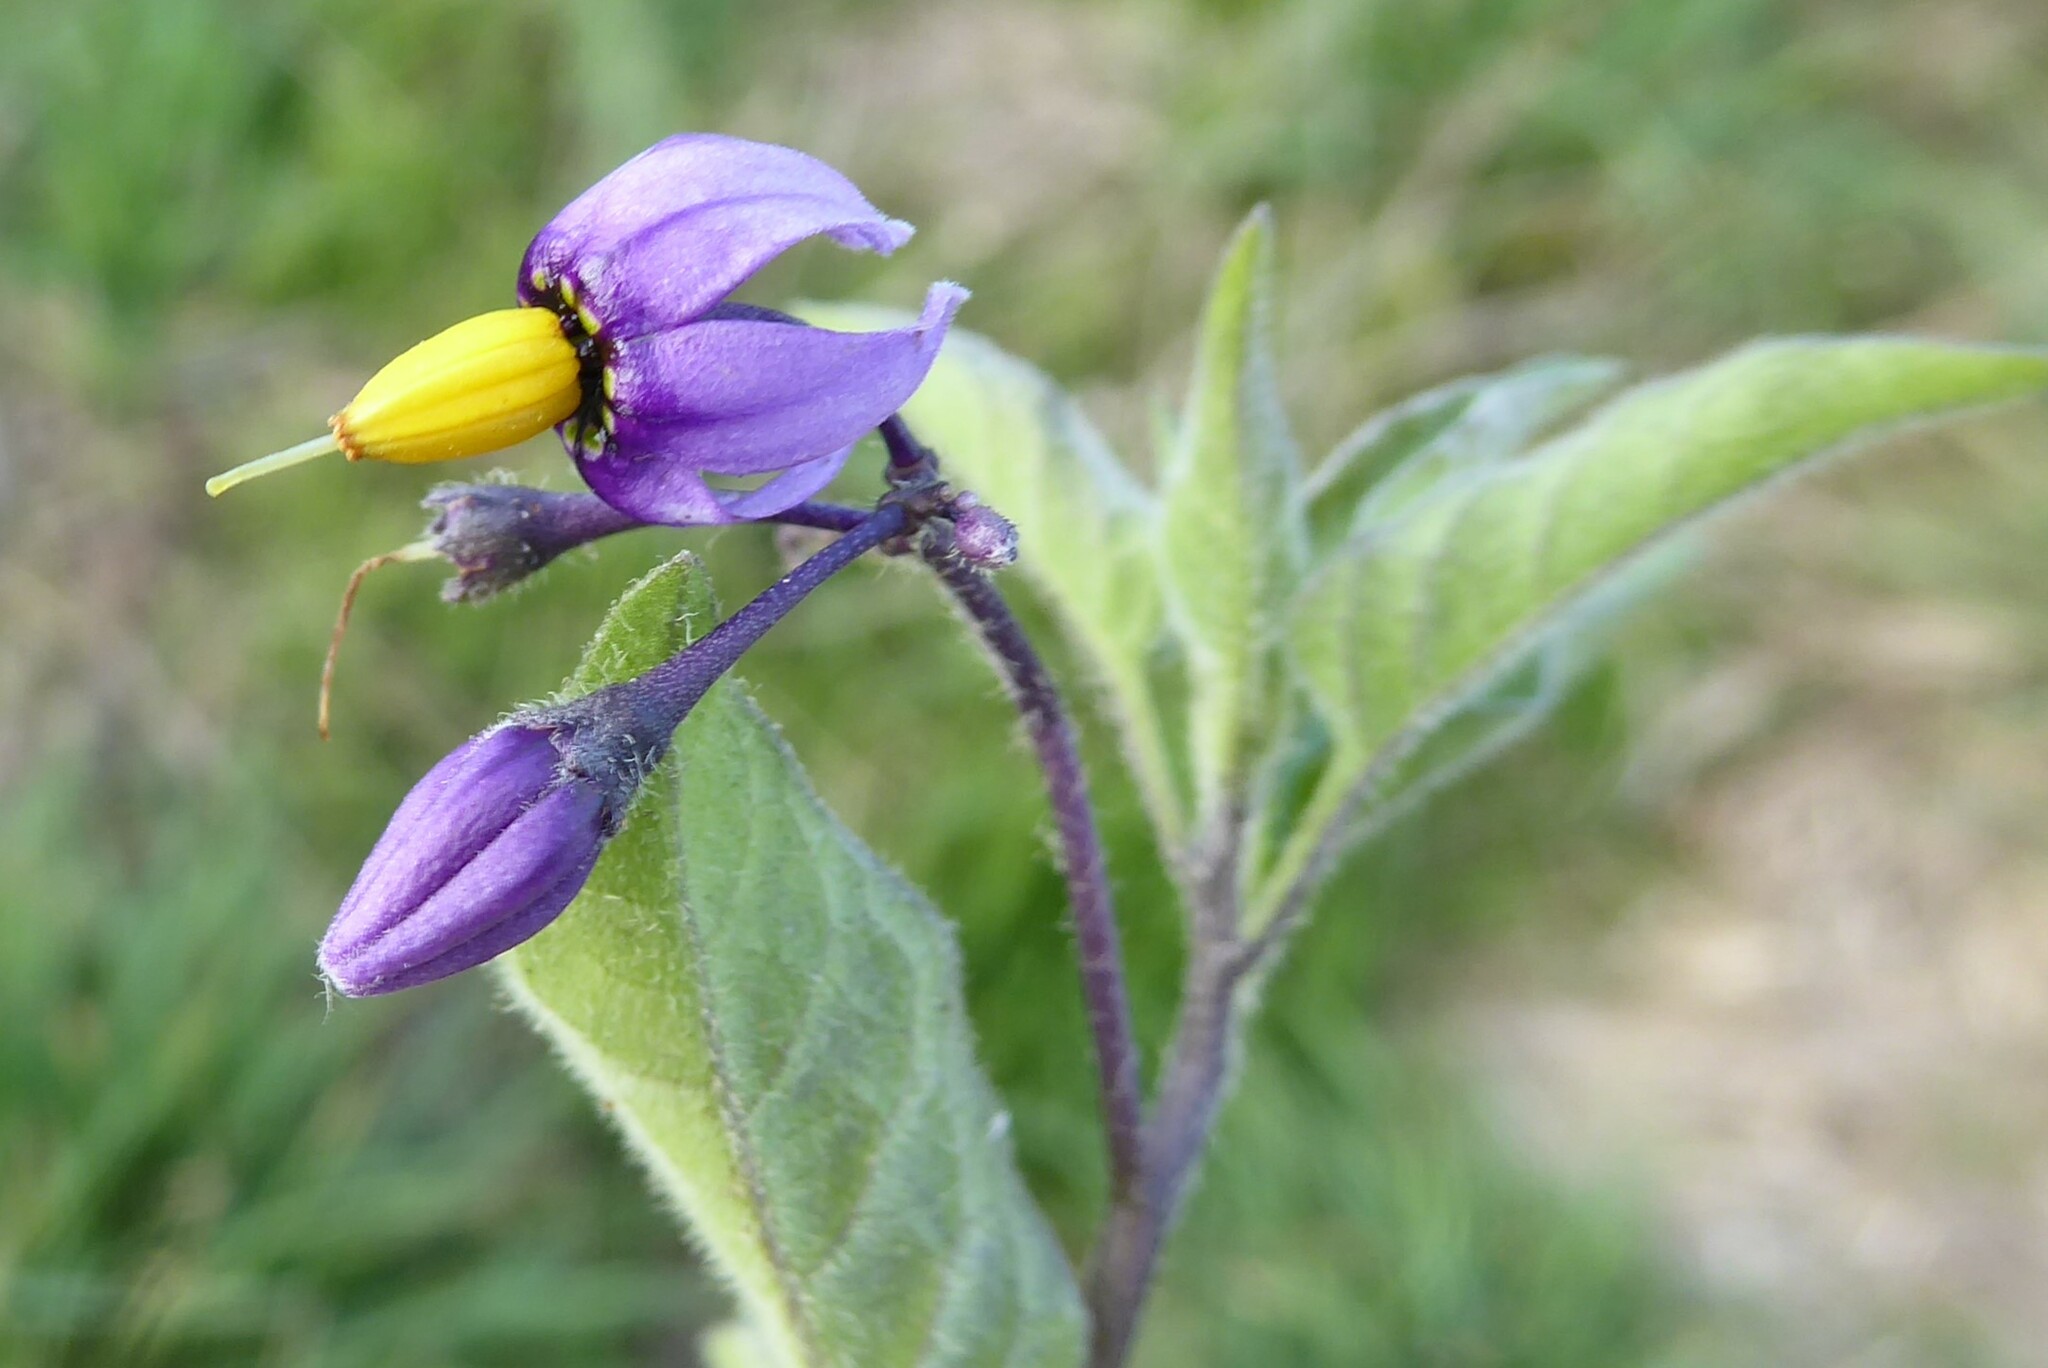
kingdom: Plantae
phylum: Tracheophyta
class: Magnoliopsida
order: Solanales
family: Solanaceae
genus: Solanum
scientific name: Solanum dulcamara
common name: Climbing nightshade
